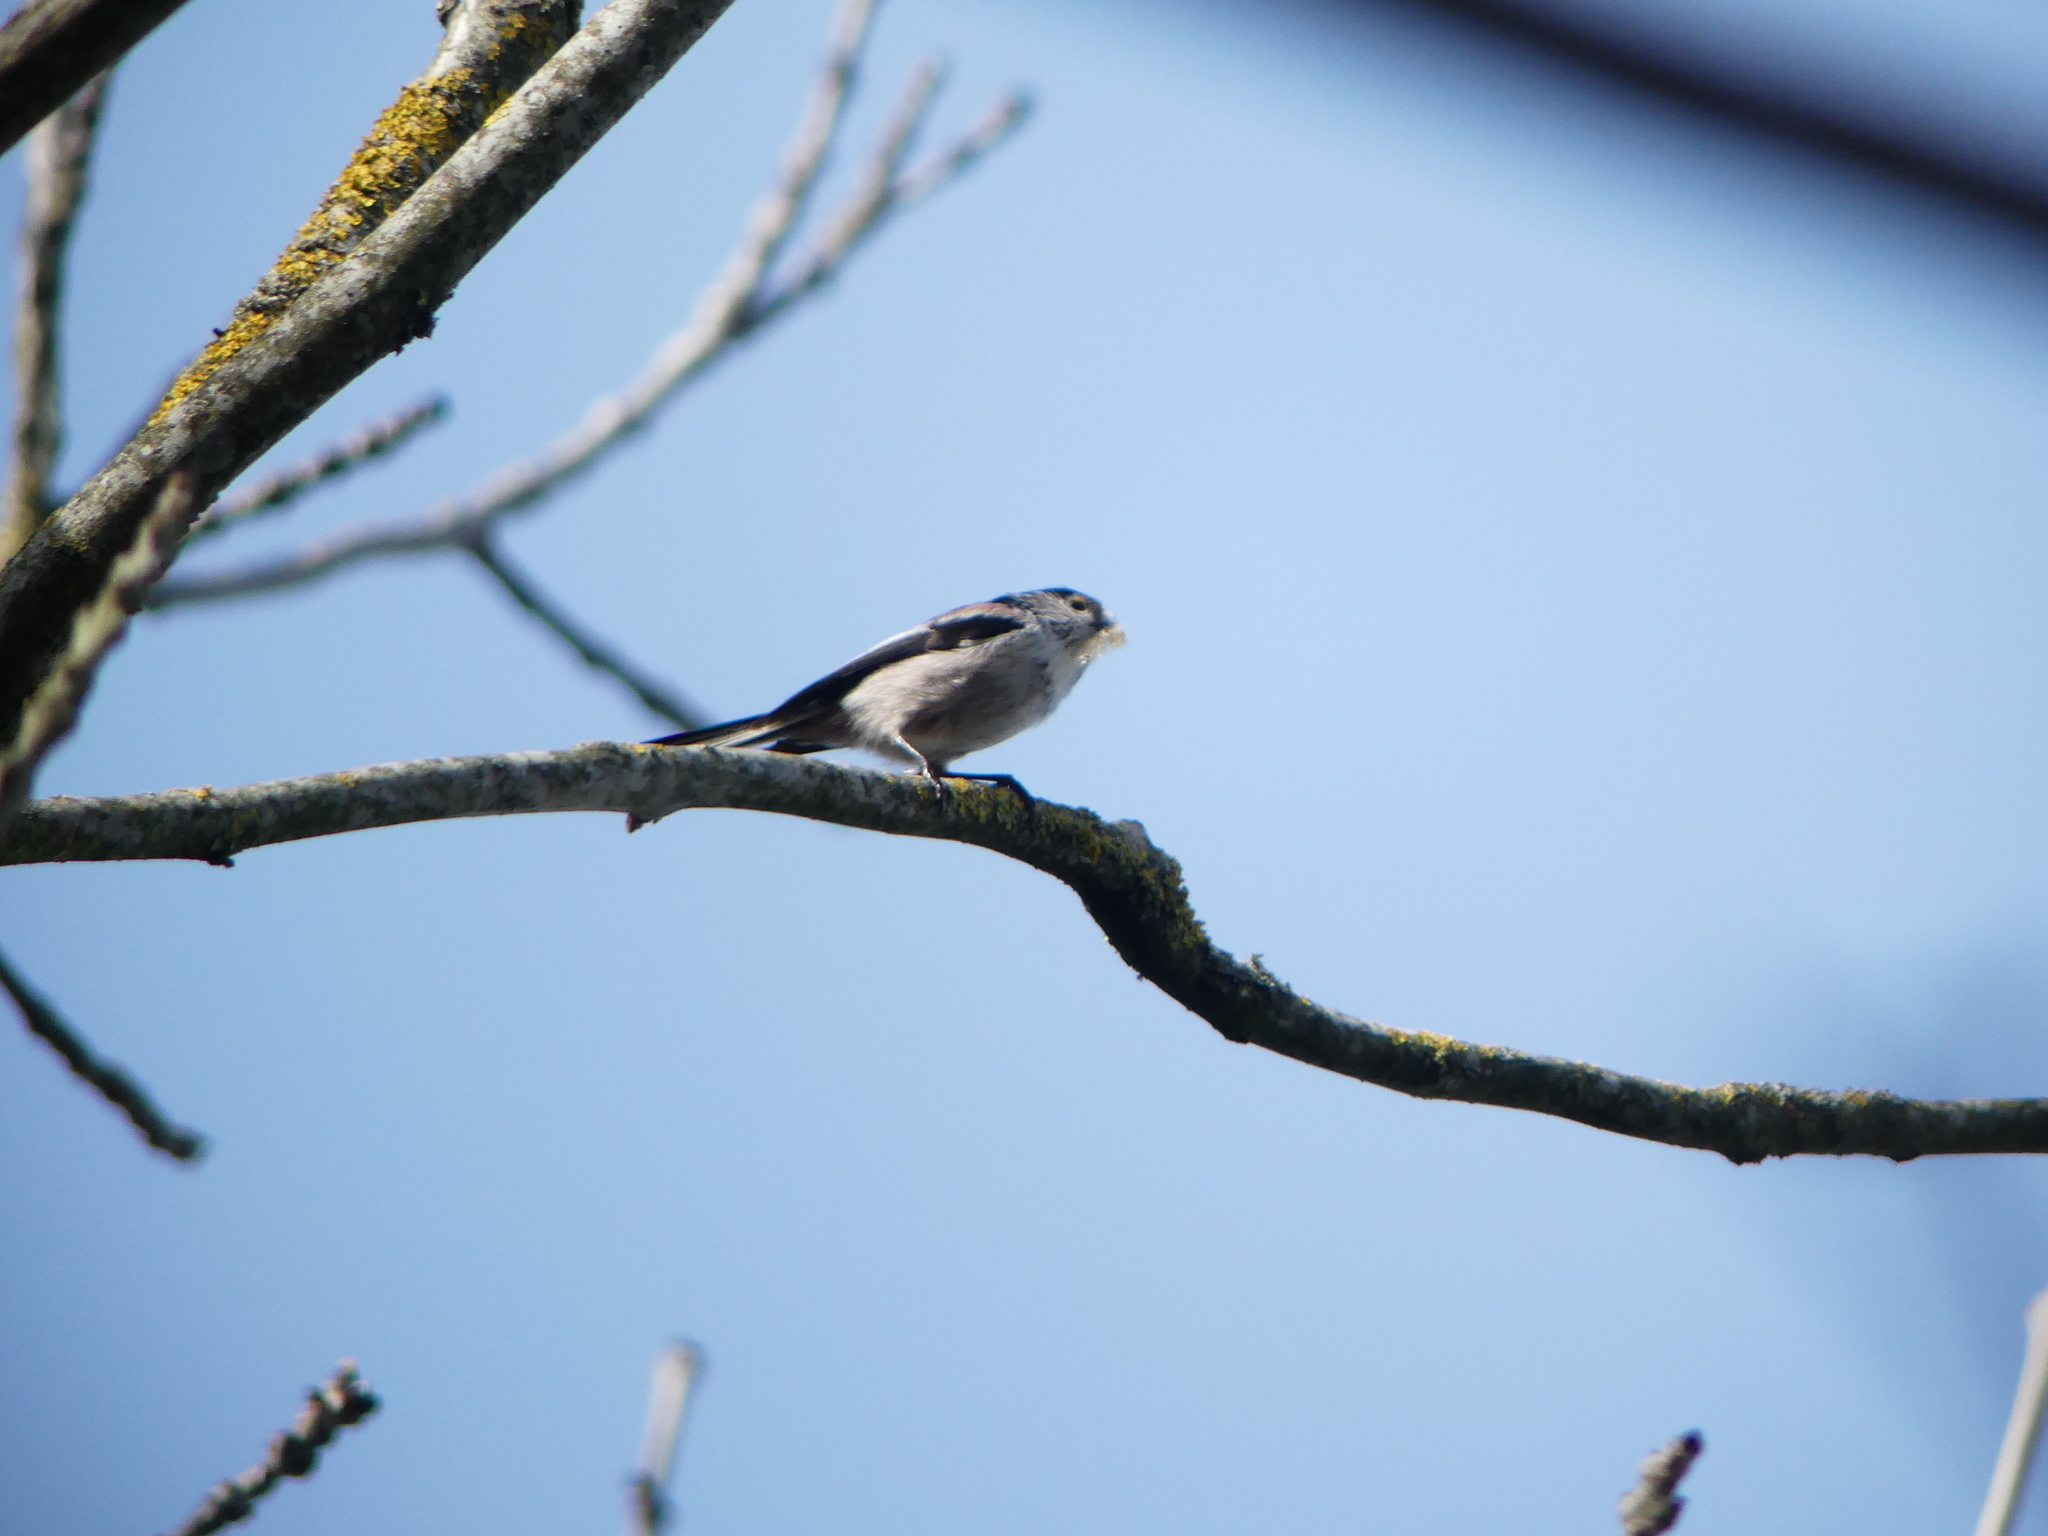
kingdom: Animalia
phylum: Chordata
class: Aves
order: Passeriformes
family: Aegithalidae
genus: Aegithalos
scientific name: Aegithalos caudatus
